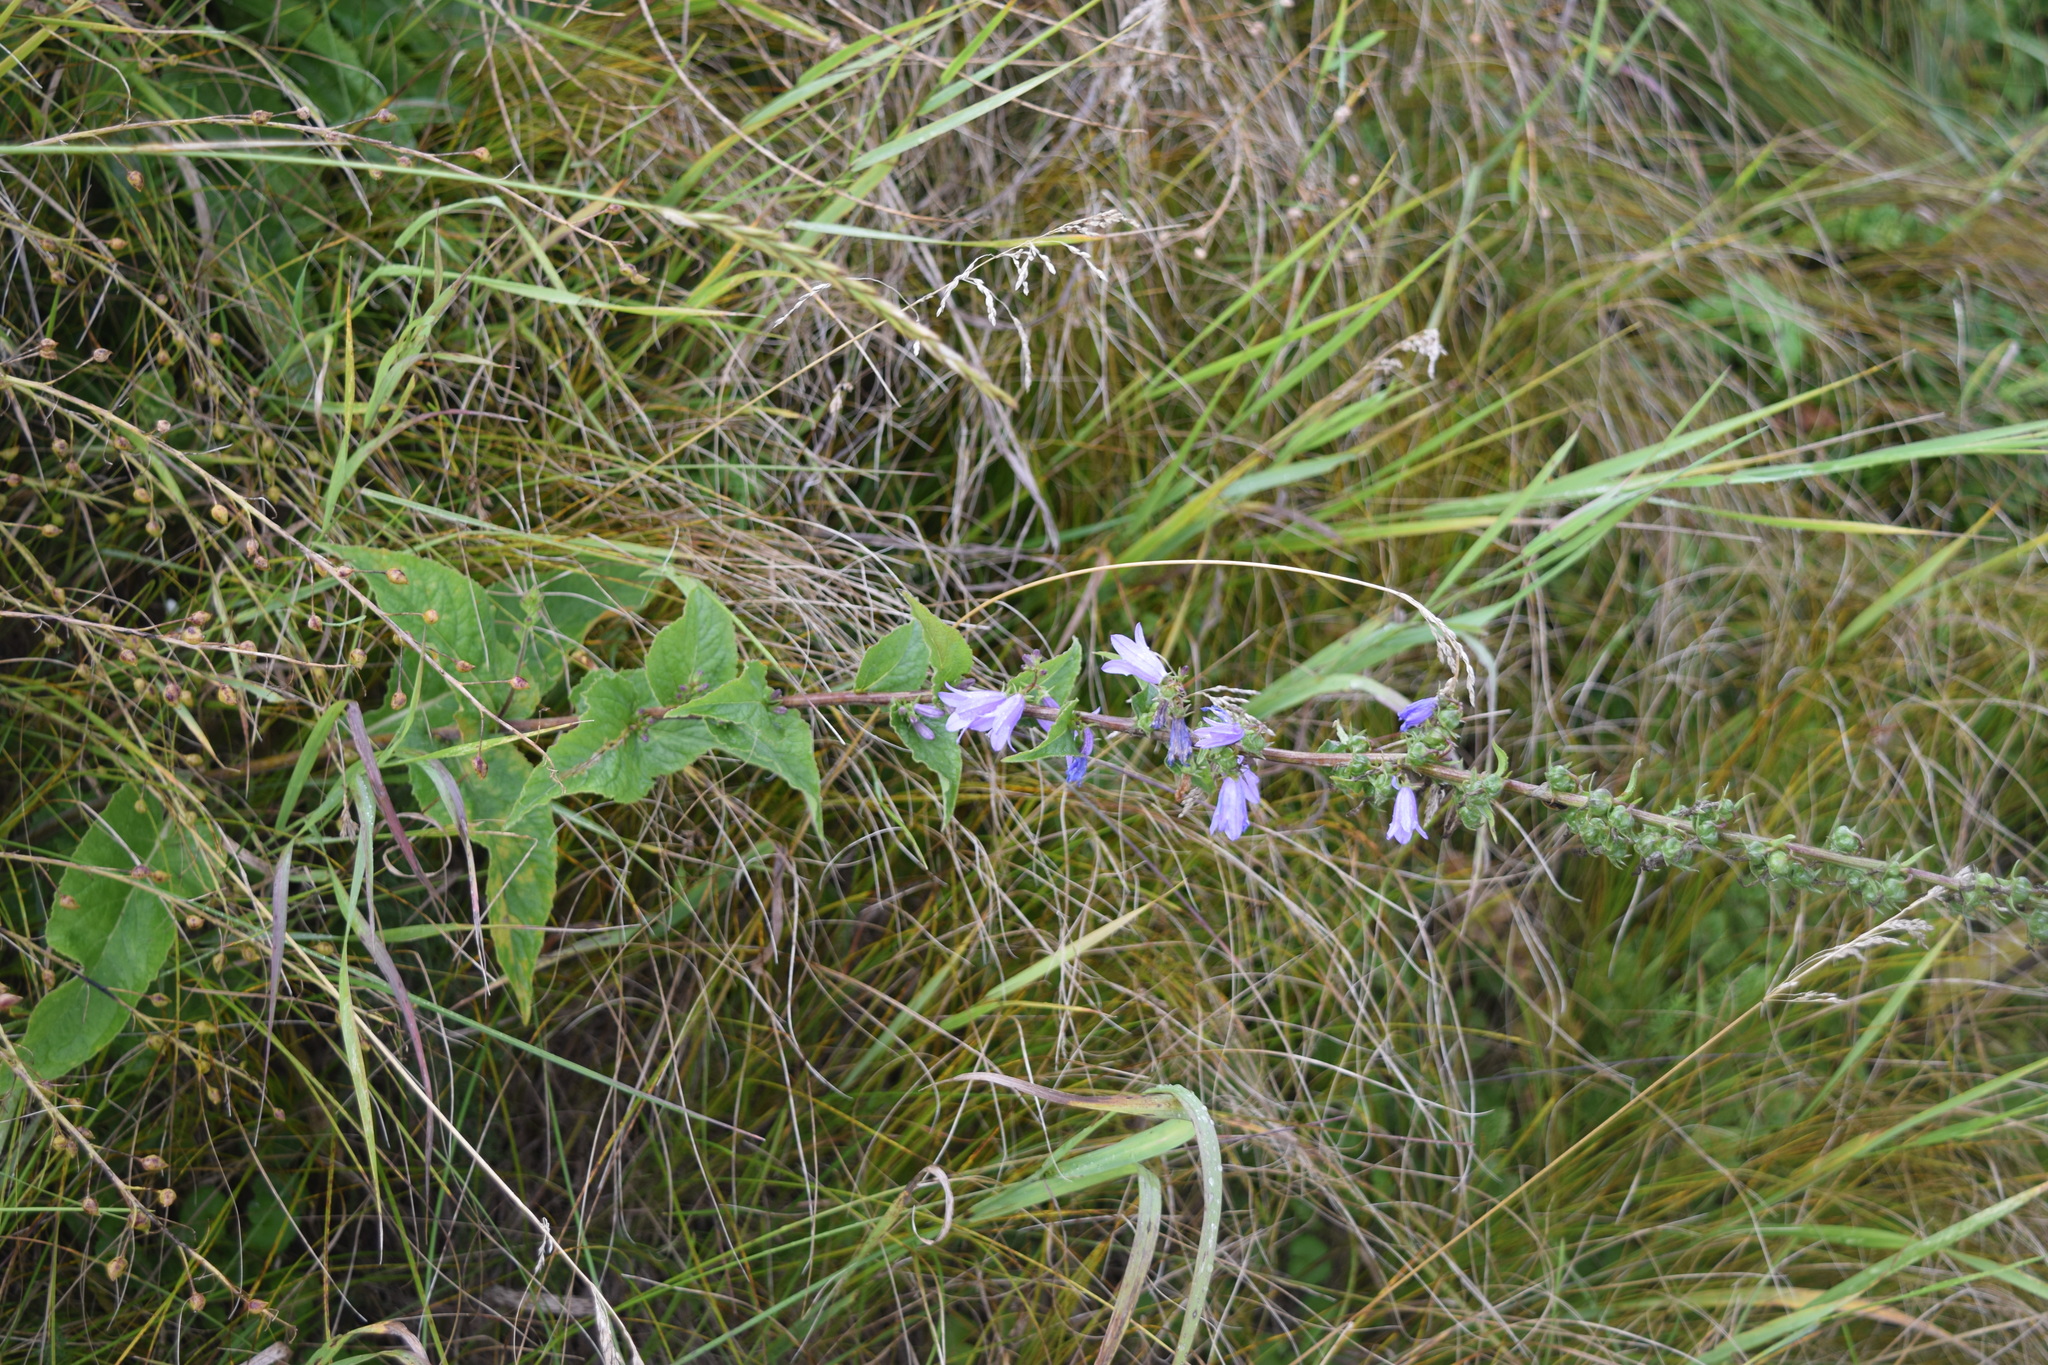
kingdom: Plantae
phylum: Tracheophyta
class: Magnoliopsida
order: Asterales
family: Campanulaceae
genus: Campanula
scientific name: Campanula bononiensis
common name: Pale bellflower
